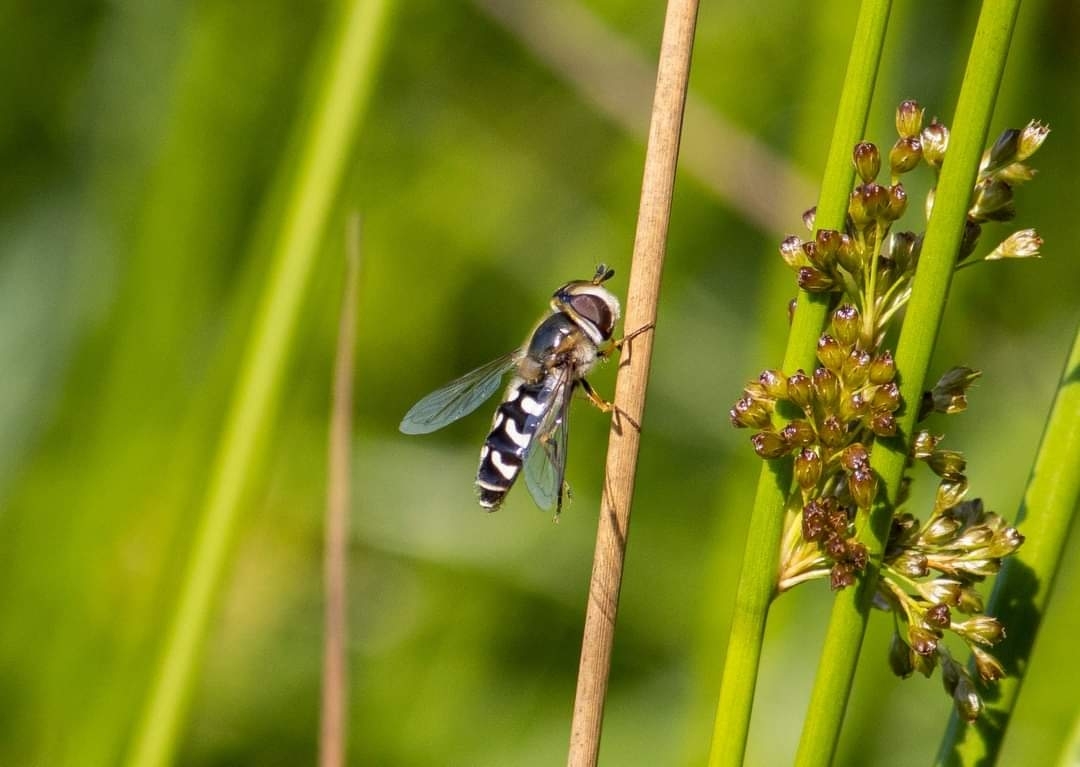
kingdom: Animalia
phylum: Arthropoda
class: Insecta
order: Diptera
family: Syrphidae
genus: Scaeva
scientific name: Scaeva pyrastri
